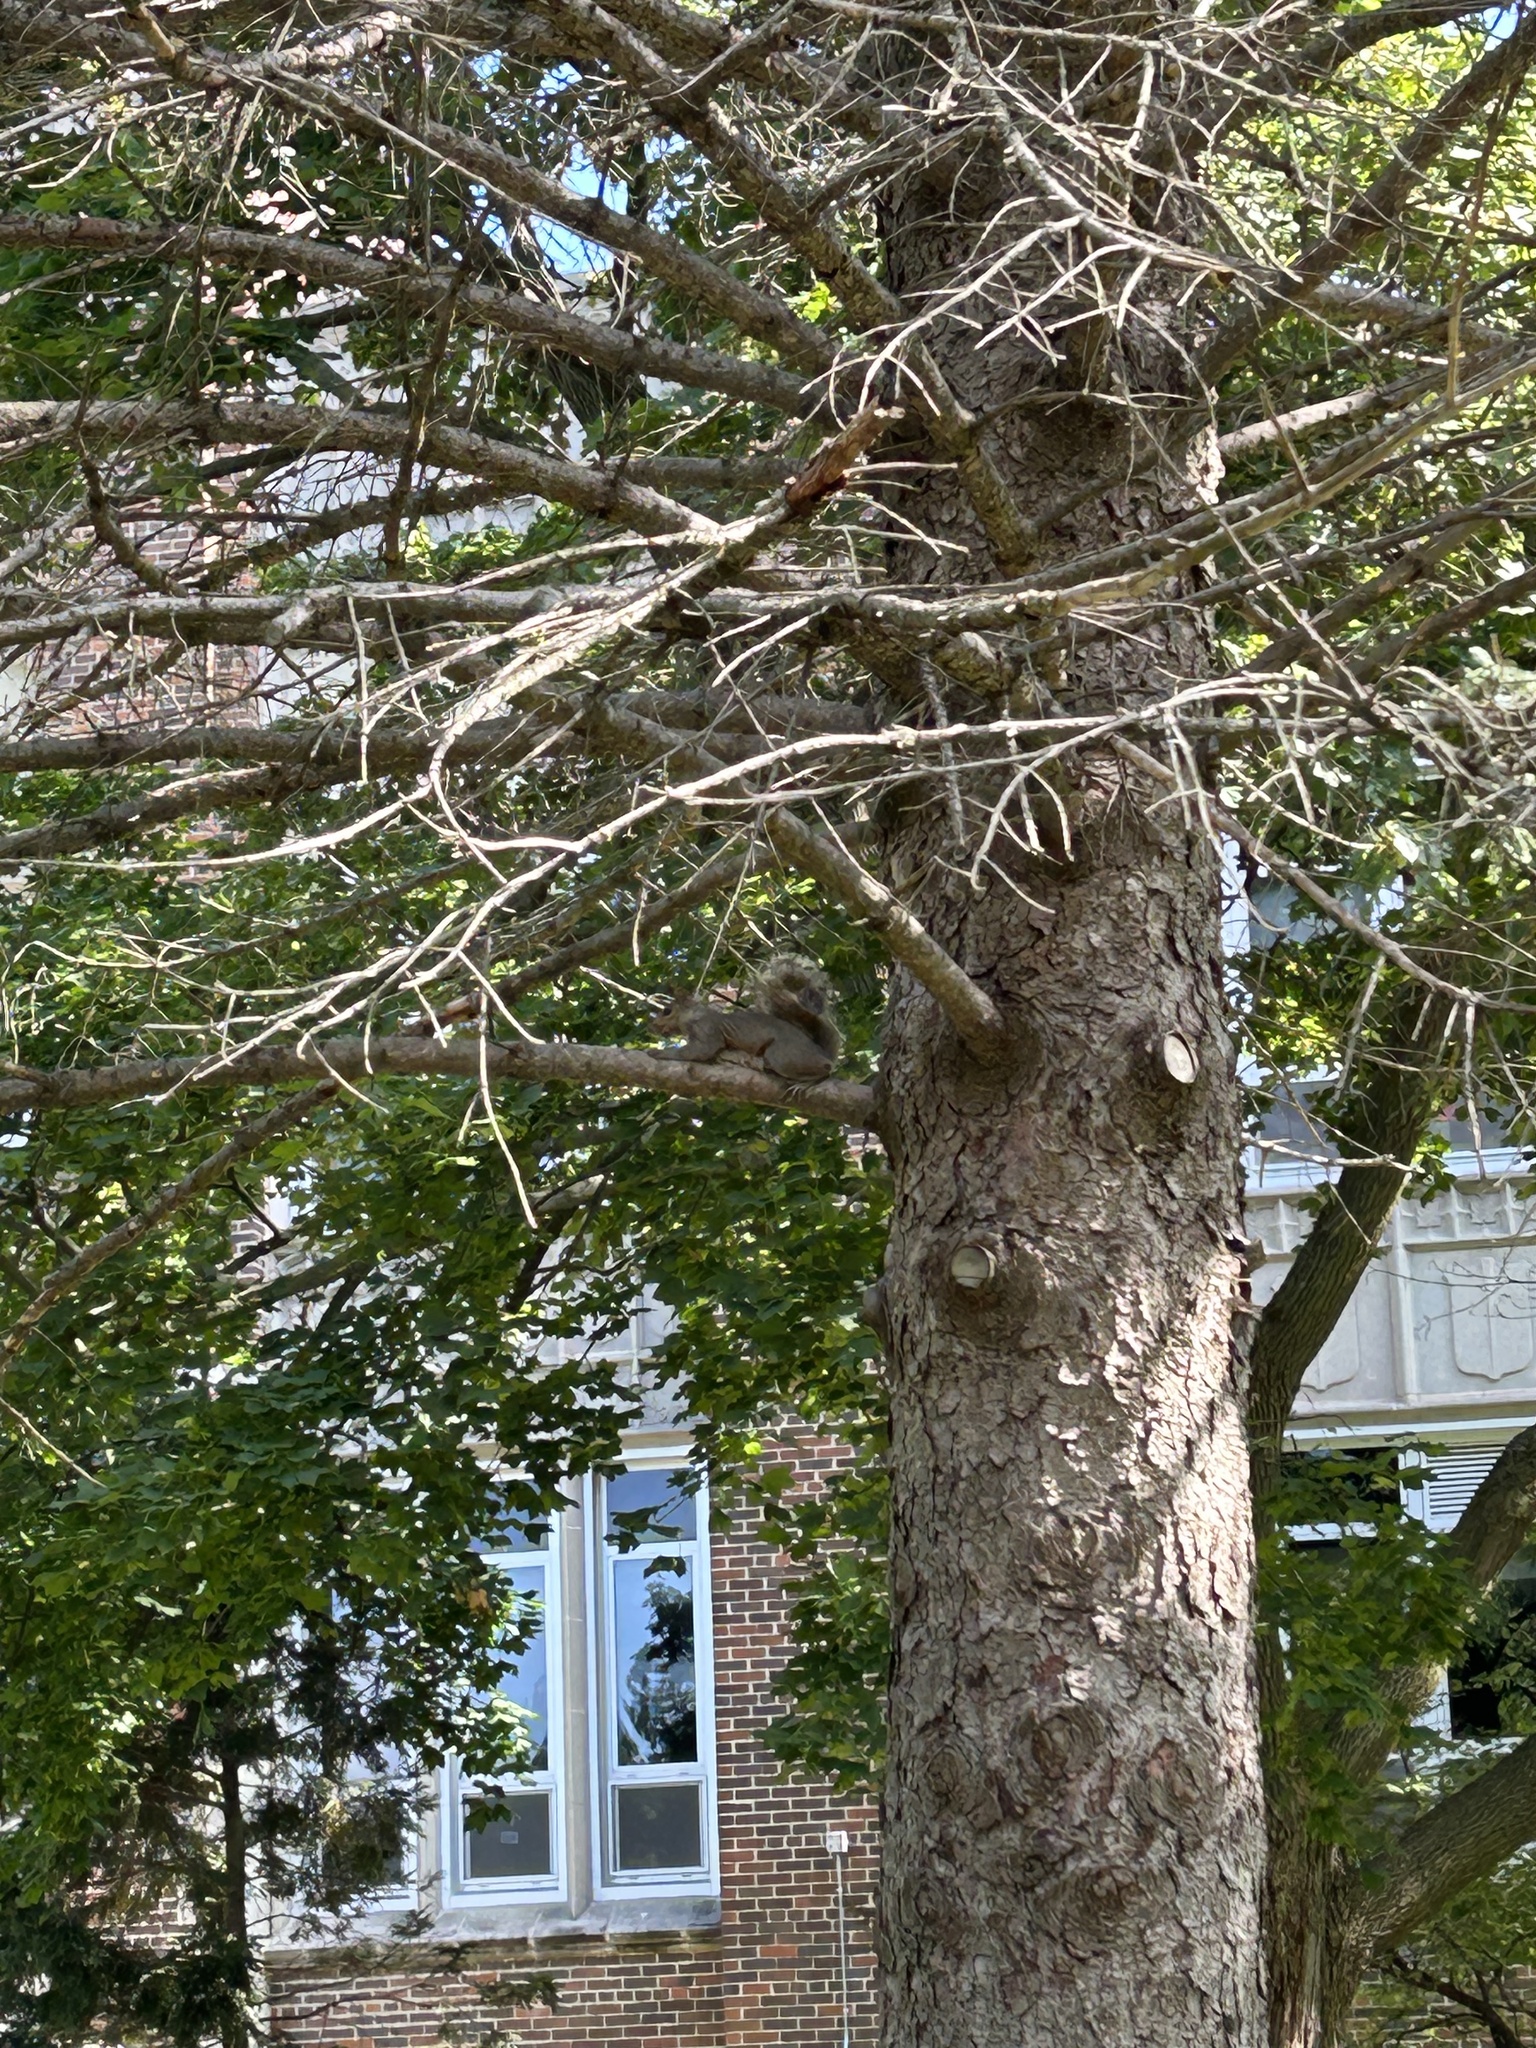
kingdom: Animalia
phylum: Chordata
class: Mammalia
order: Rodentia
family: Sciuridae
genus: Sciurus
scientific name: Sciurus carolinensis
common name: Eastern gray squirrel
